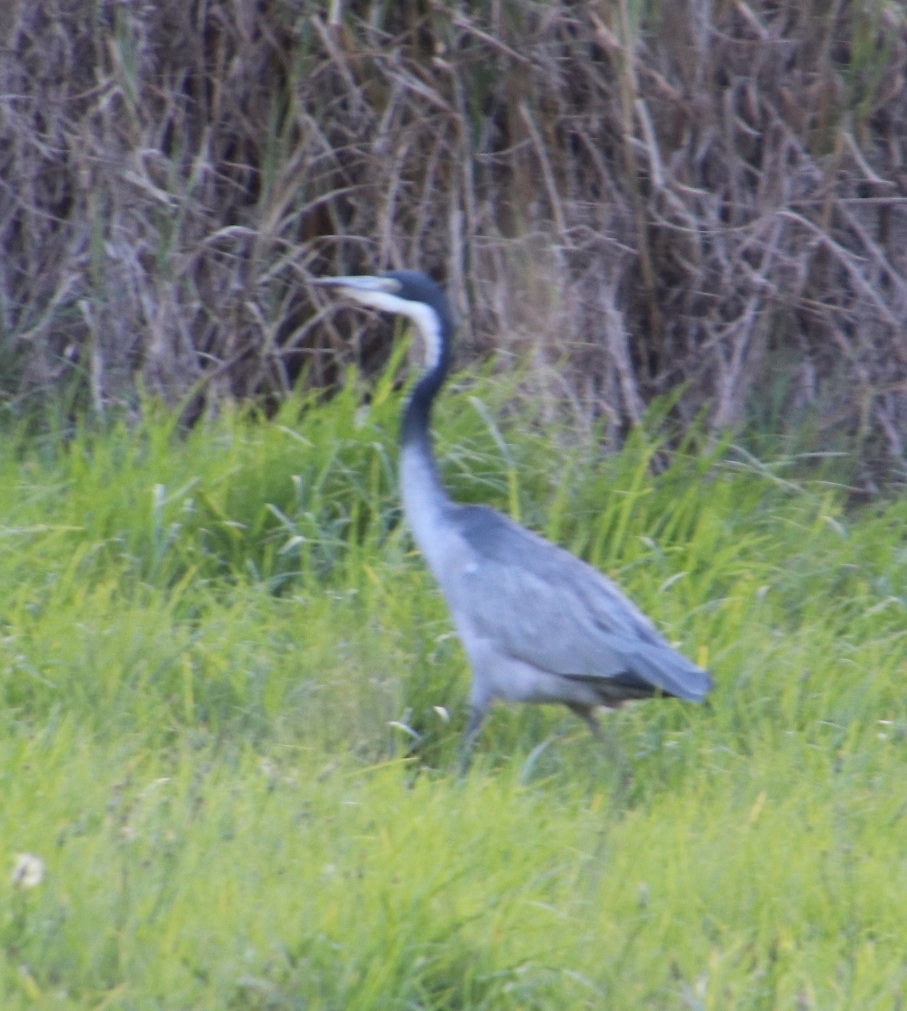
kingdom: Animalia
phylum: Chordata
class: Aves
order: Pelecaniformes
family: Ardeidae
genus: Ardea
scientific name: Ardea melanocephala
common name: Black-headed heron
